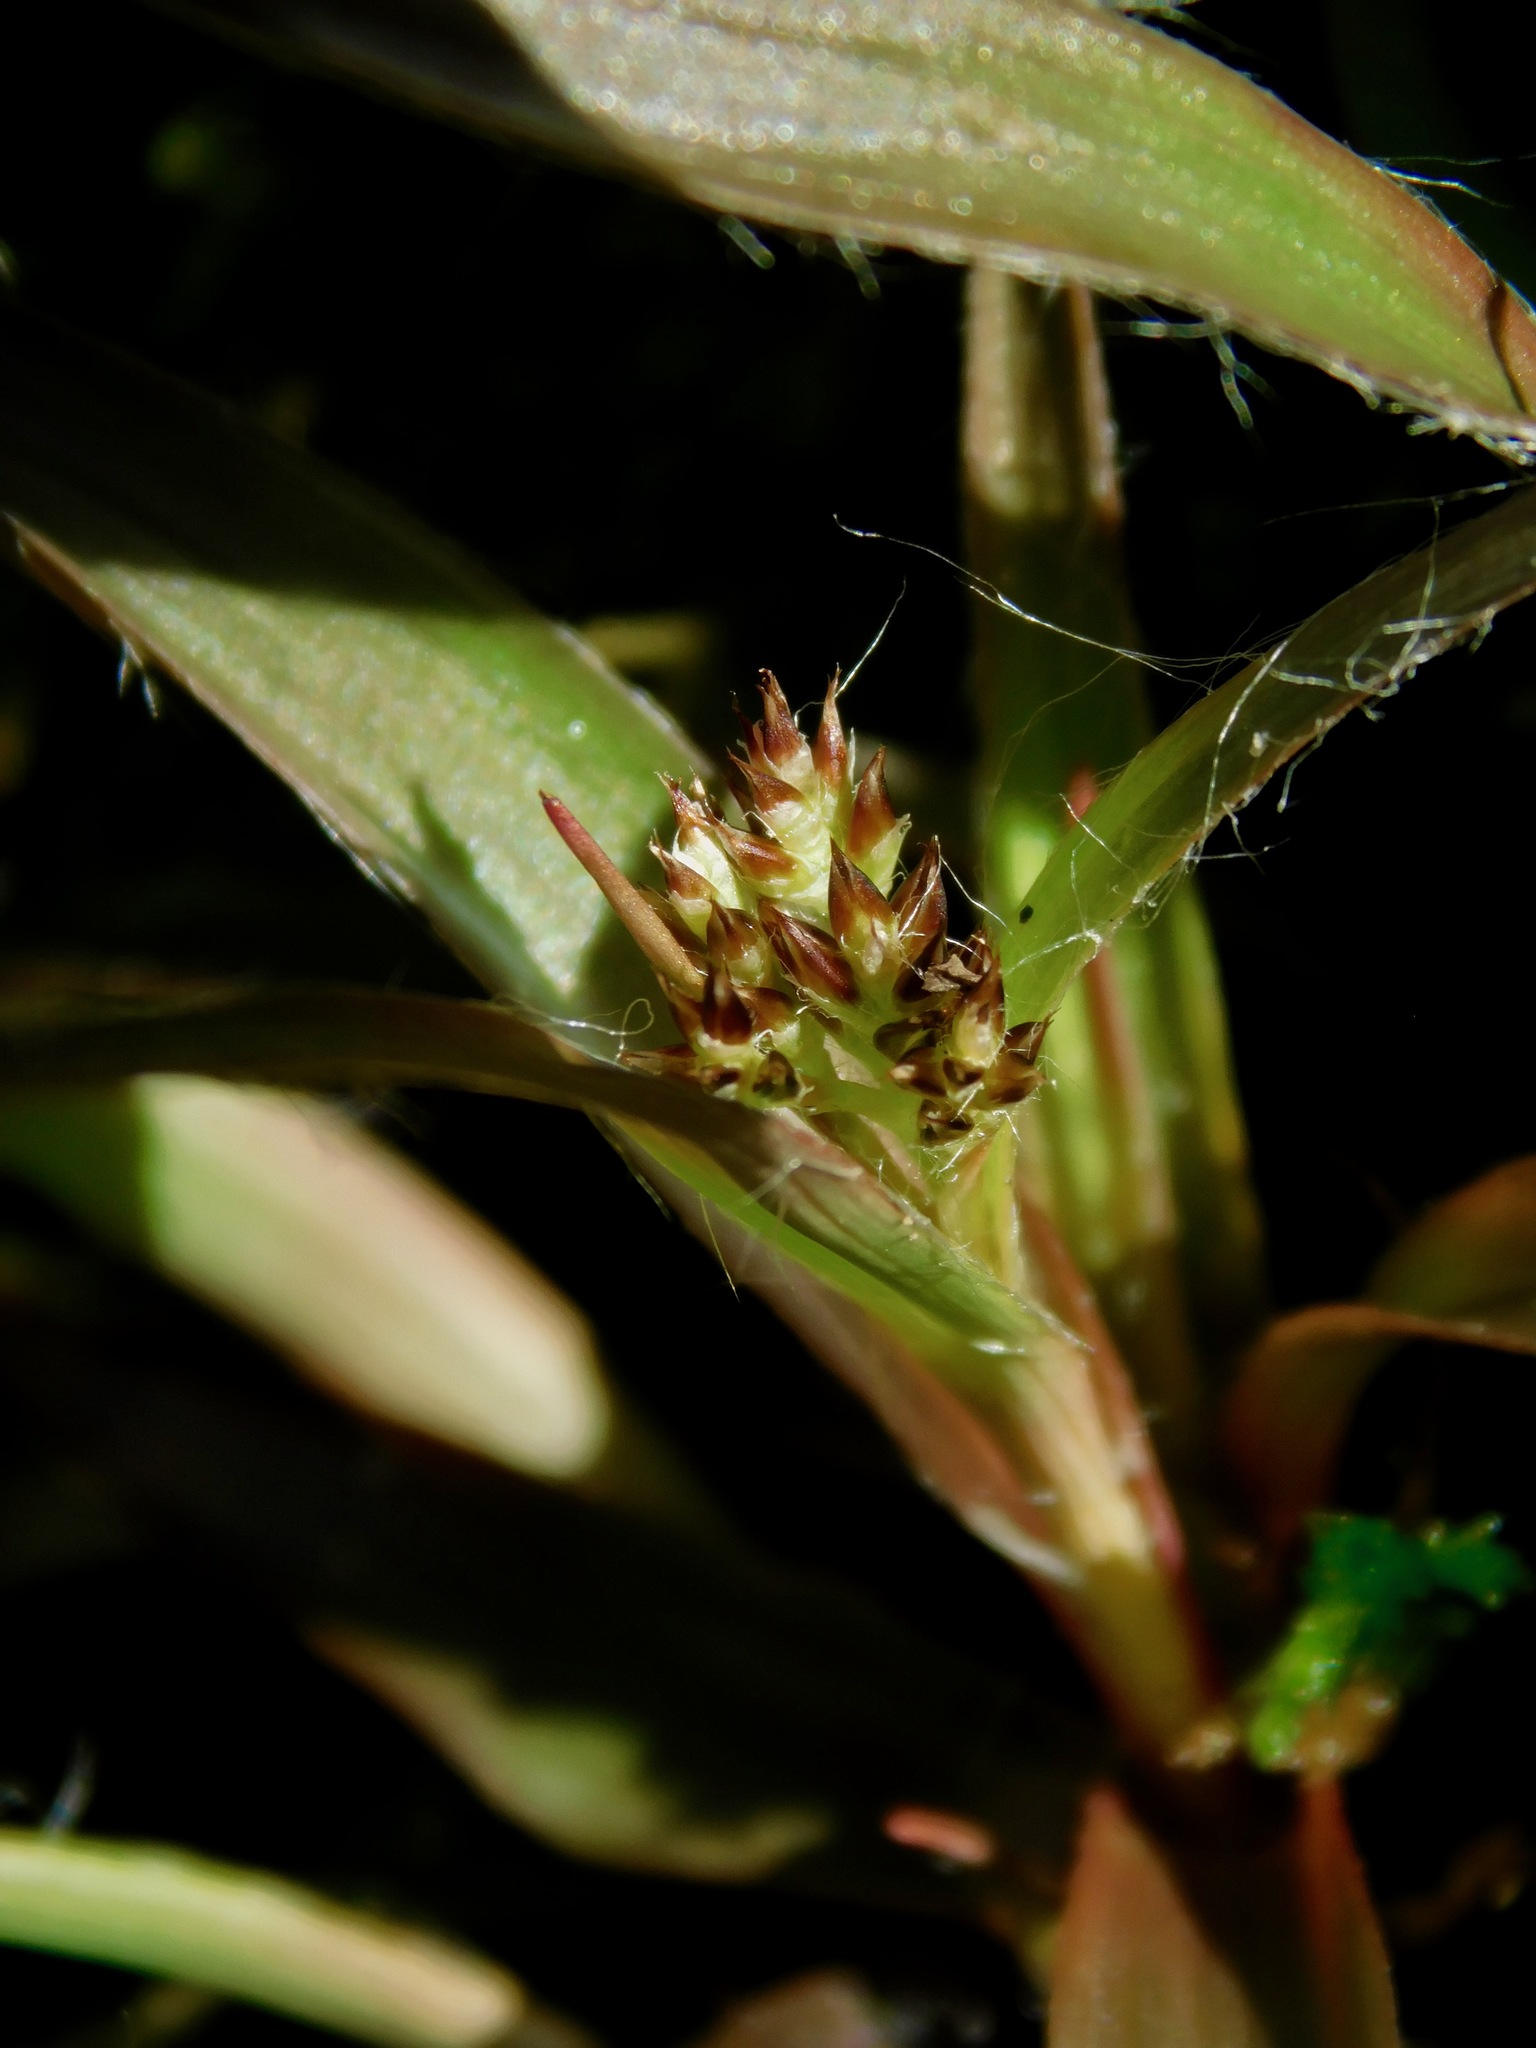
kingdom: Plantae
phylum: Tracheophyta
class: Liliopsida
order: Poales
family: Juncaceae
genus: Luzula
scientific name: Luzula echinata
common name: Hedgehog woodrush
